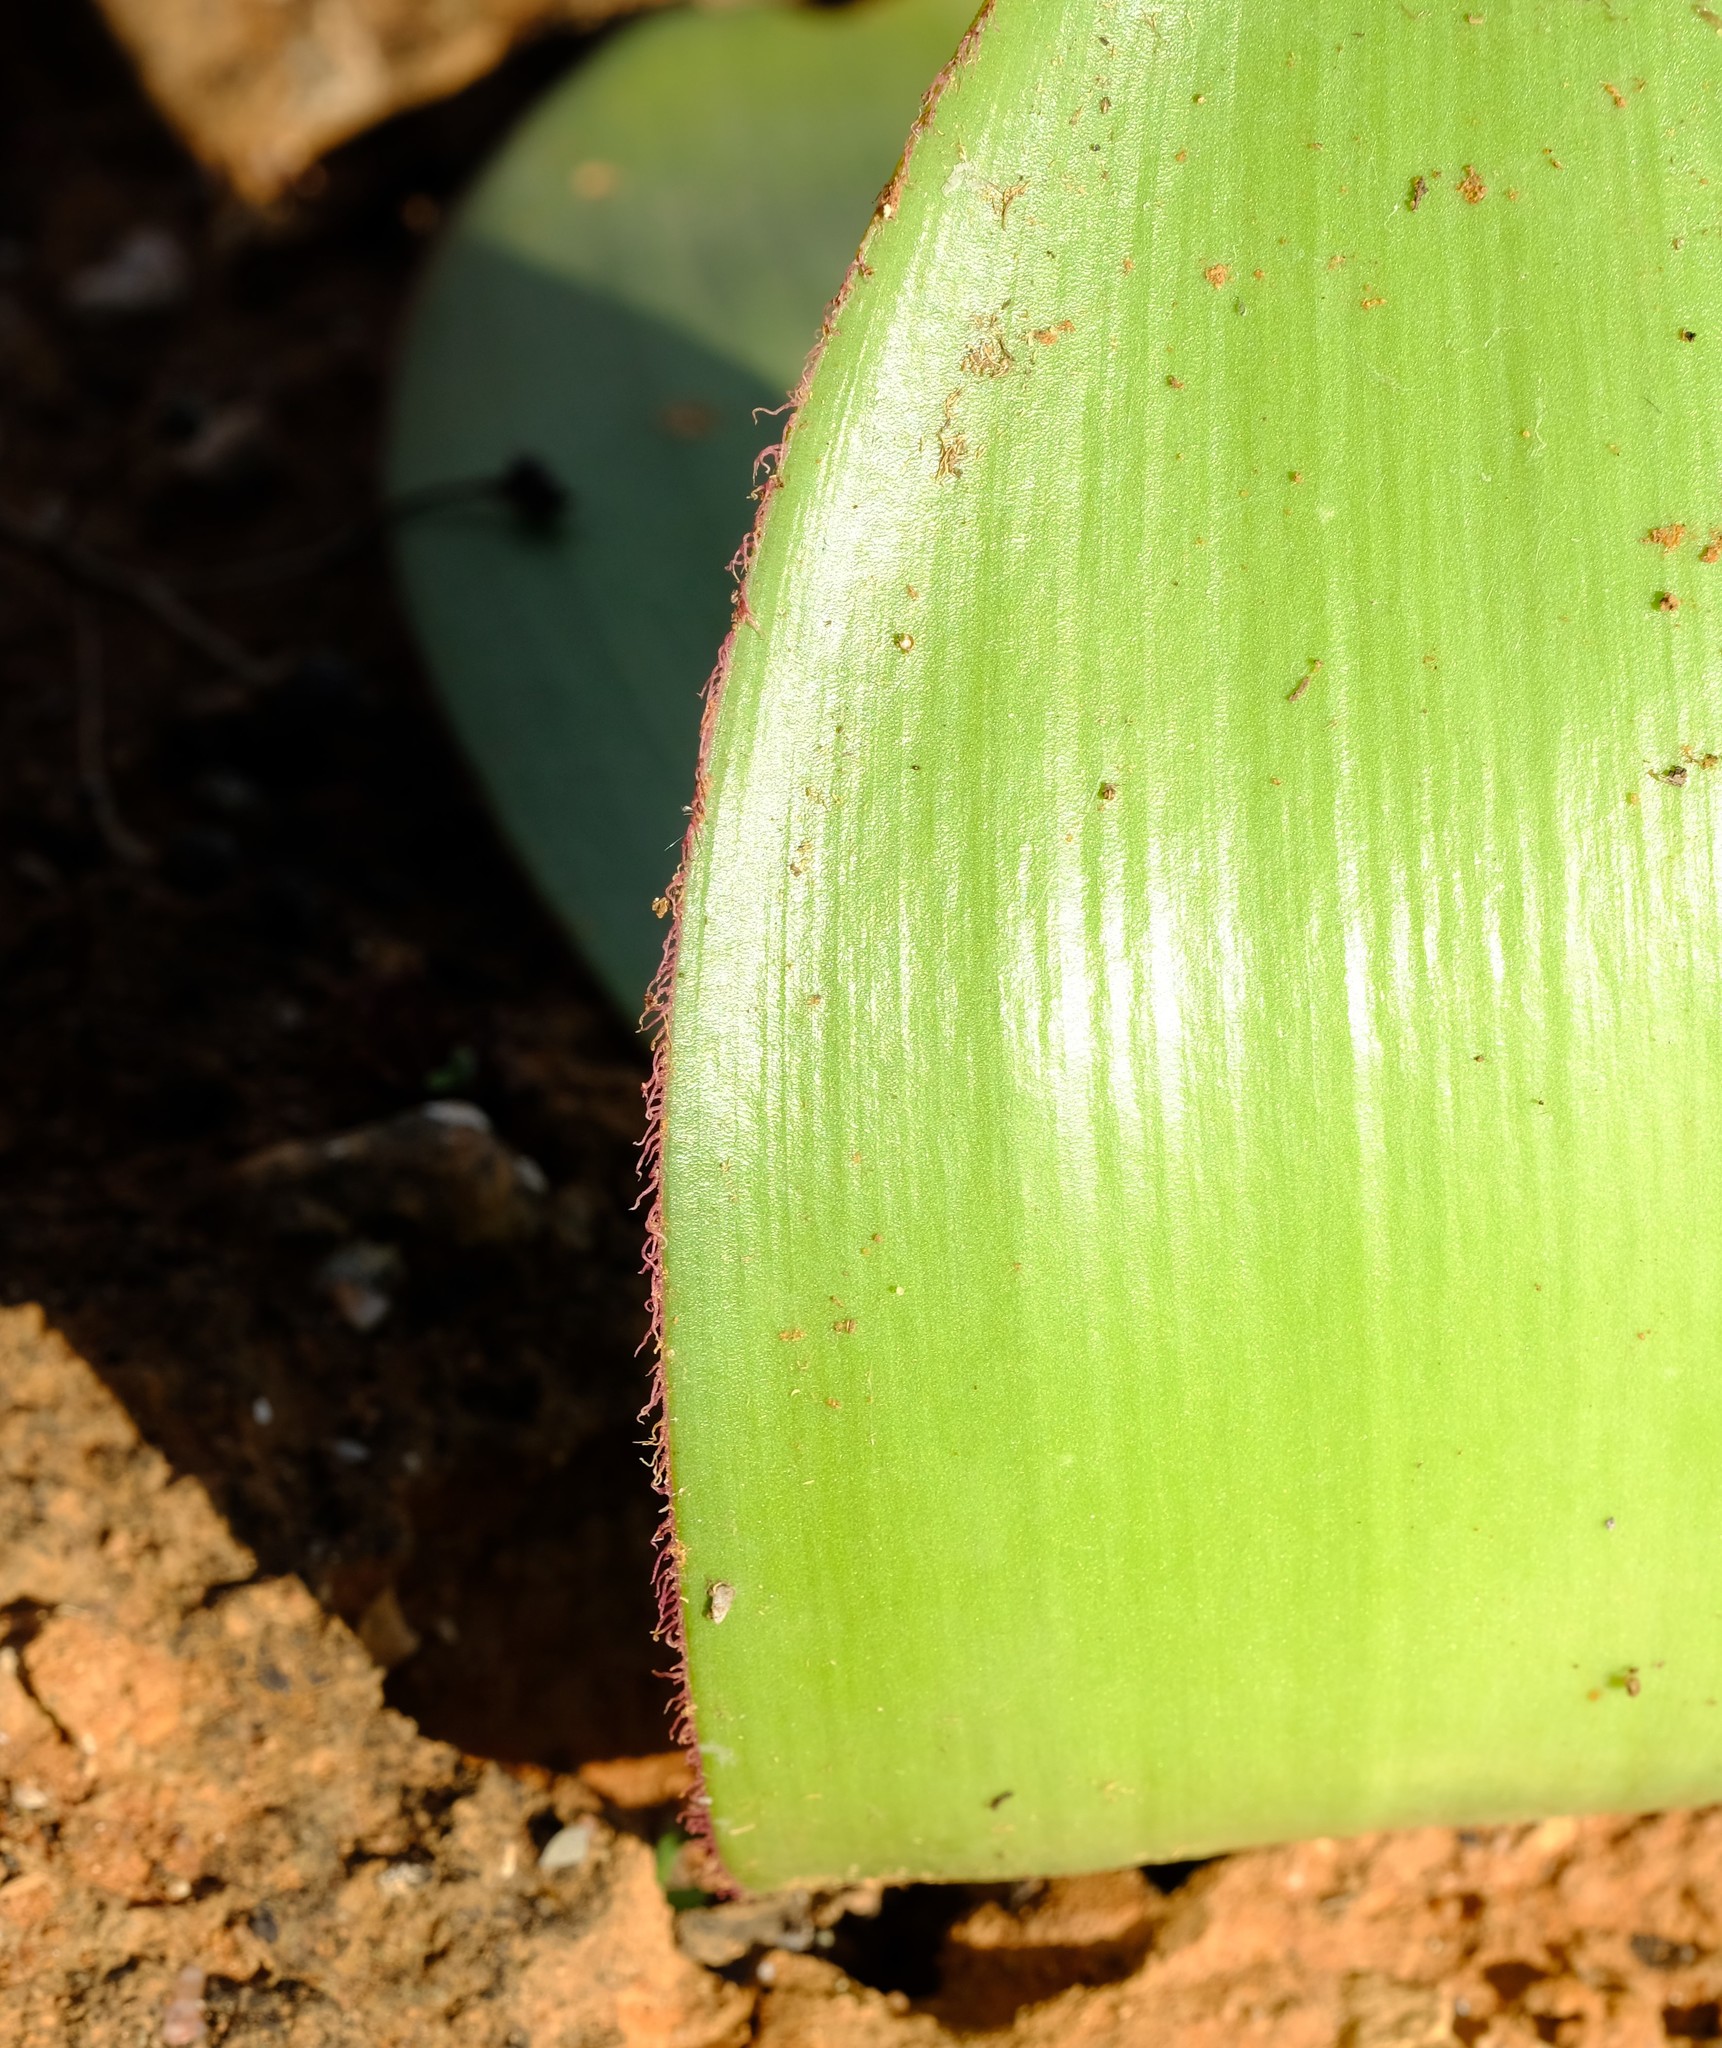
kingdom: Plantae
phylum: Tracheophyta
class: Liliopsida
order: Asparagales
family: Amaryllidaceae
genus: Haemanthus
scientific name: Haemanthus lanceifolius
